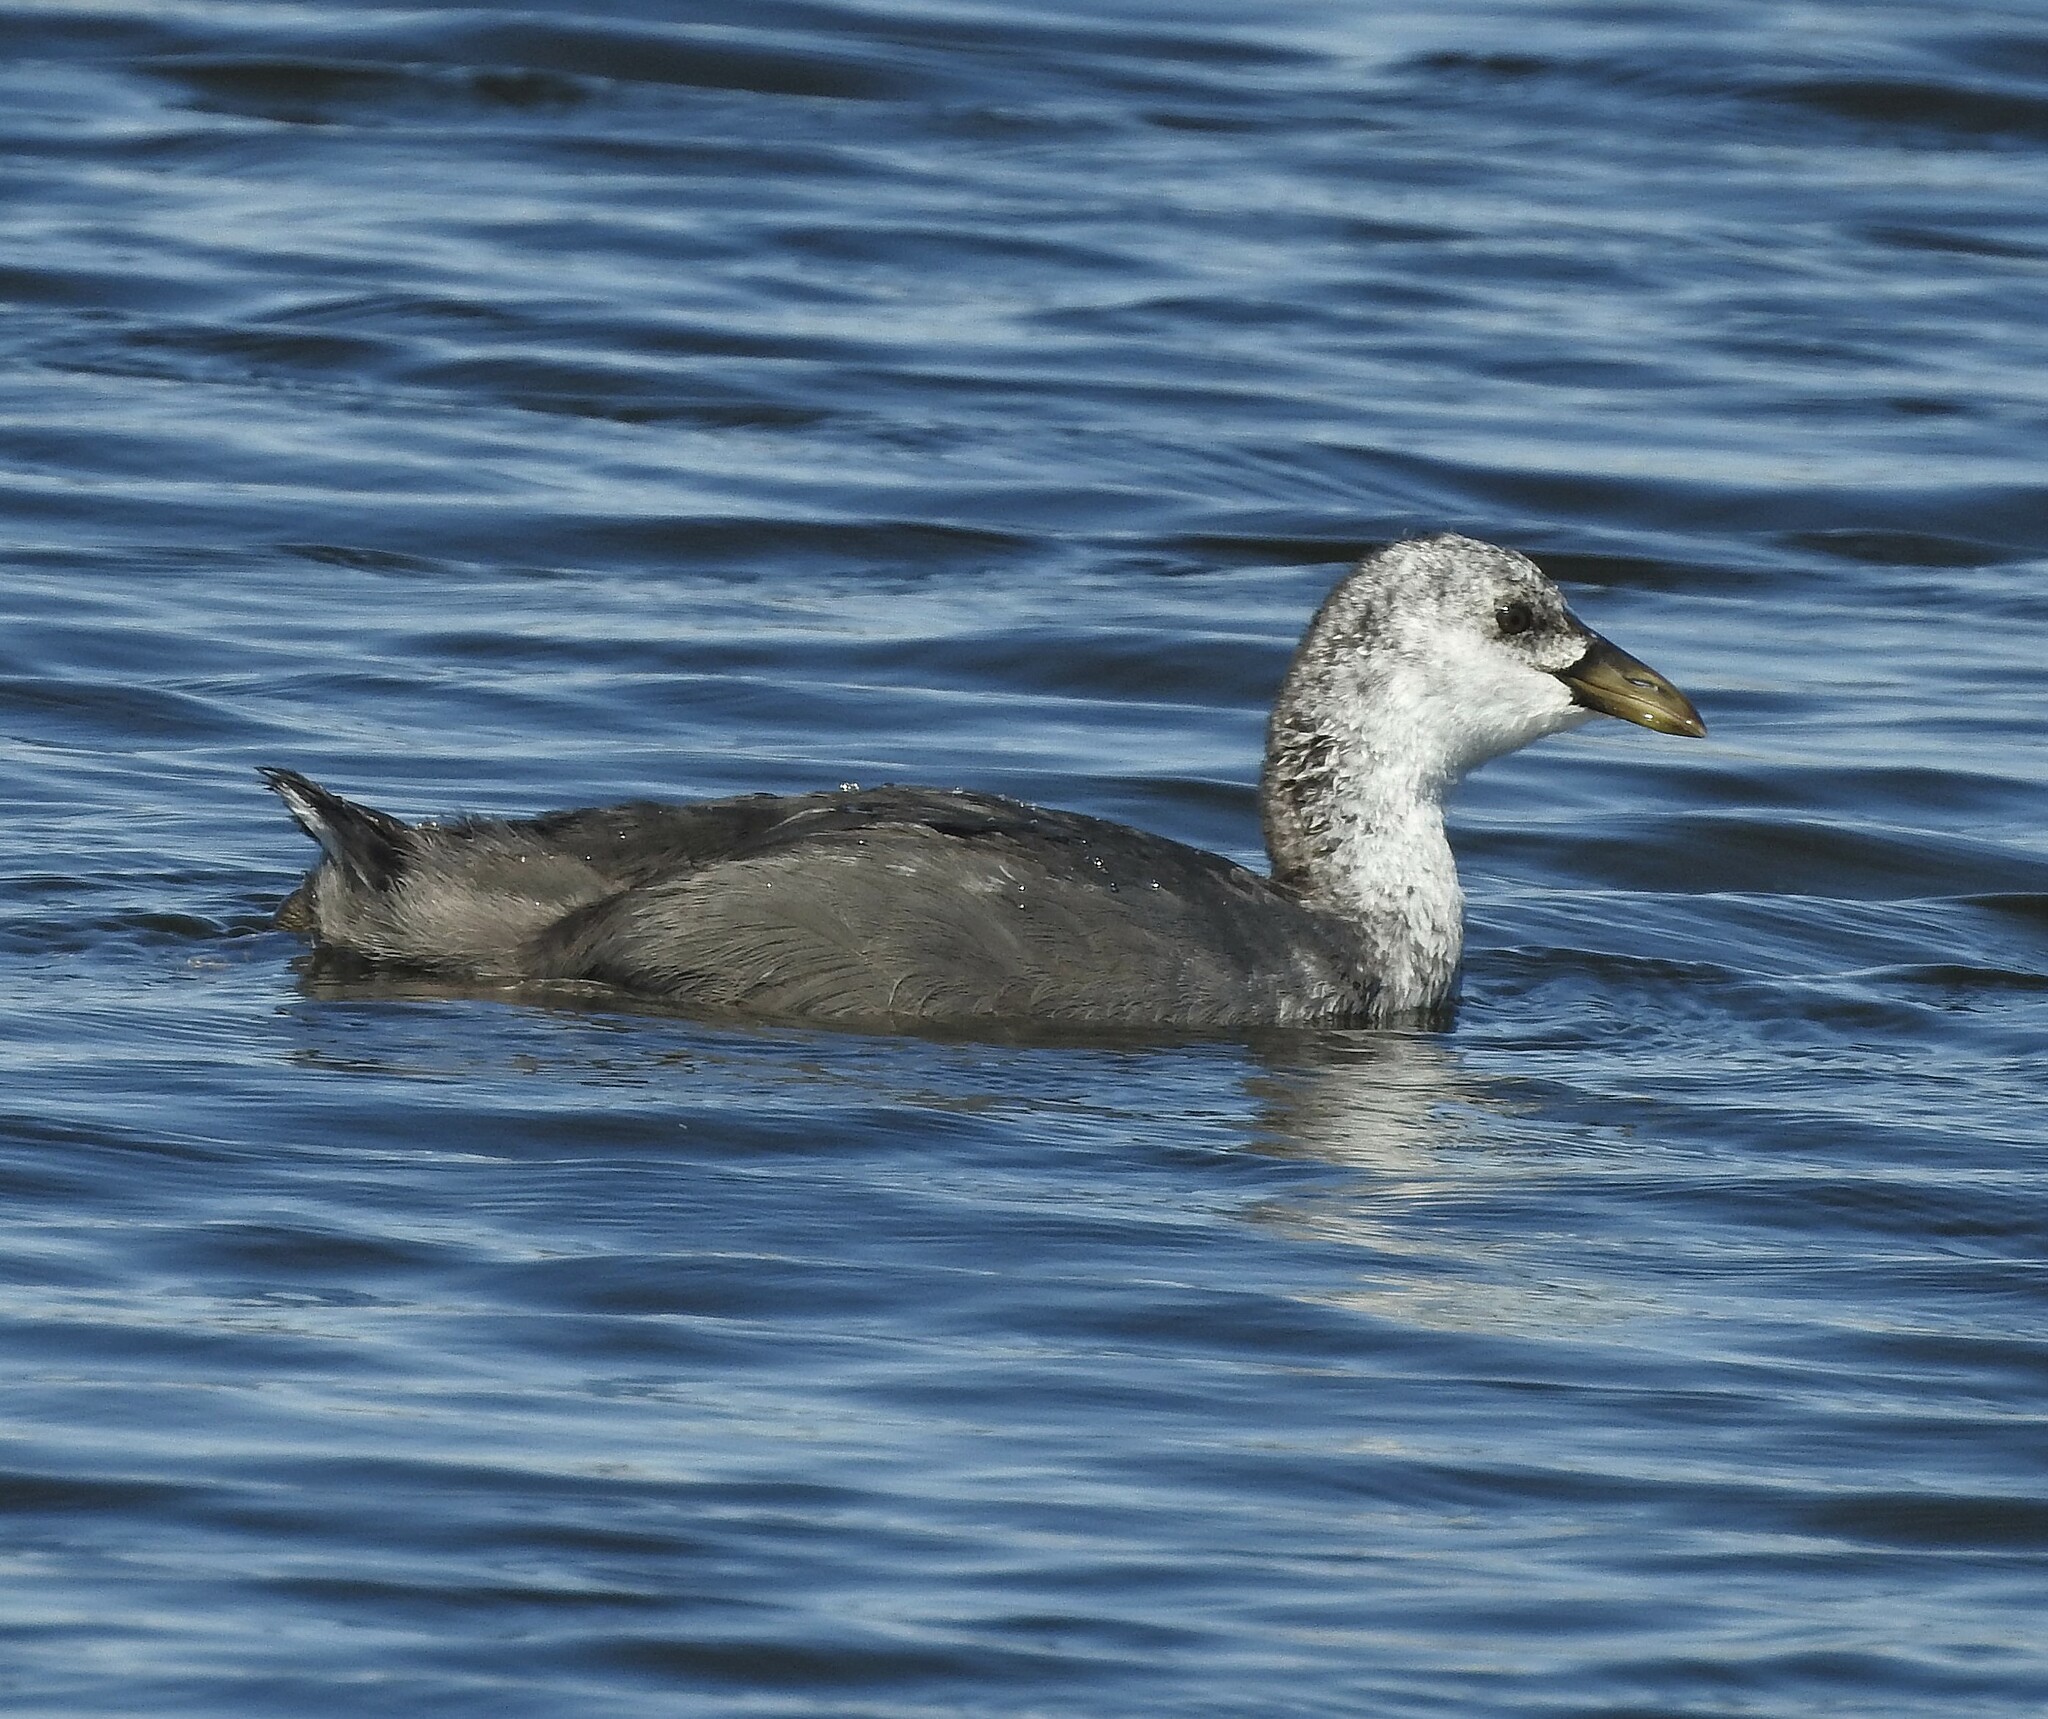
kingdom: Animalia
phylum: Chordata
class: Aves
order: Gruiformes
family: Rallidae
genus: Fulica
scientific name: Fulica armillata
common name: Red-gartered coot
